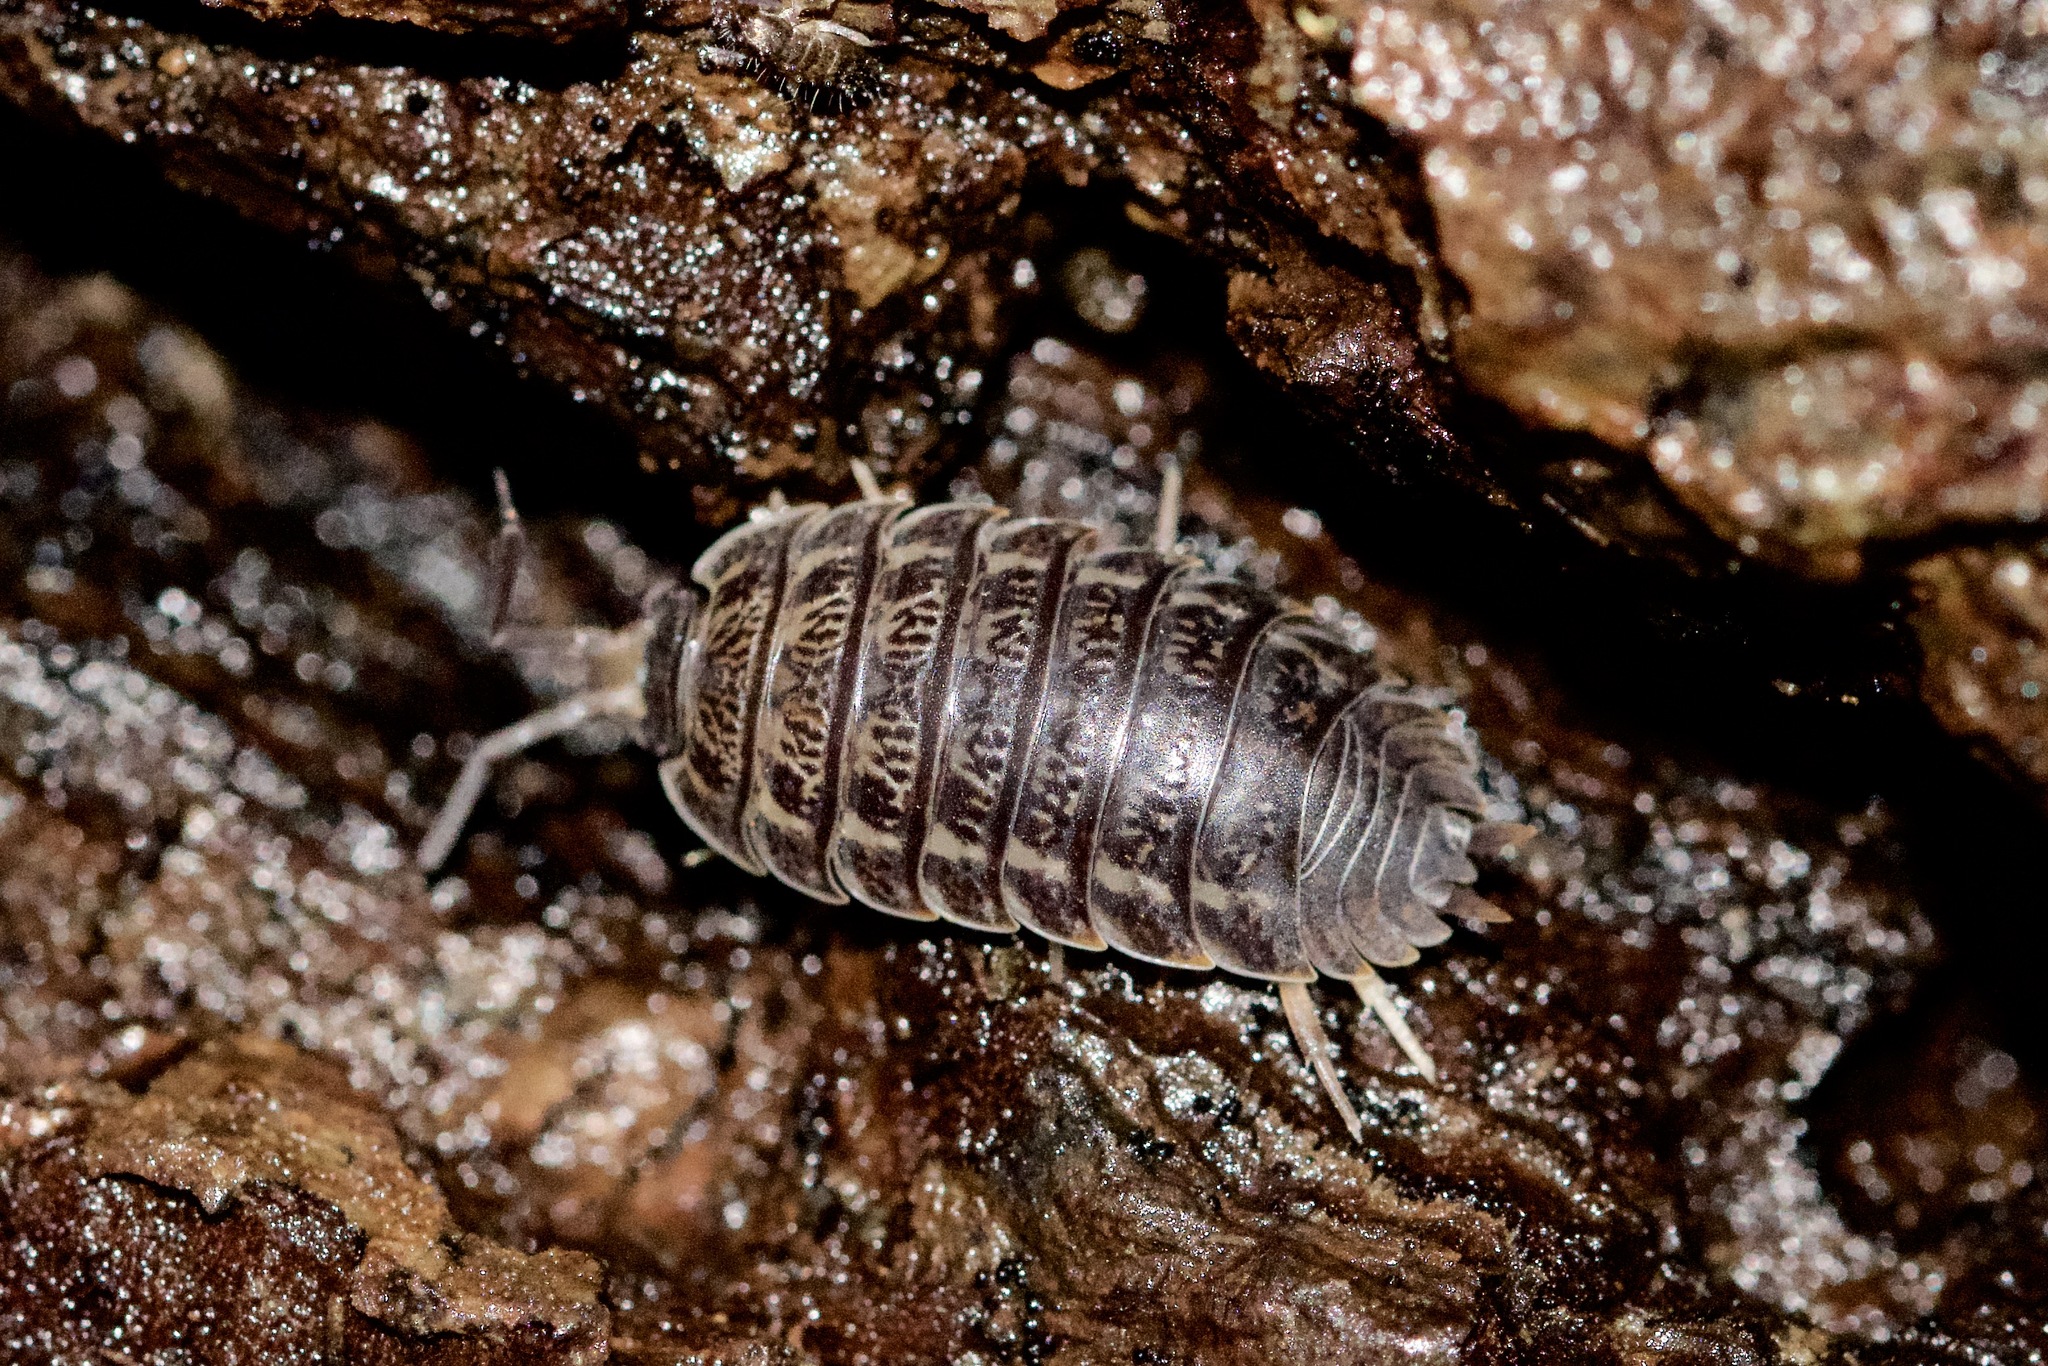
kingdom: Animalia
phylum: Arthropoda
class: Malacostraca
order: Isopoda
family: Trachelipodidae
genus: Trachelipus
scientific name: Trachelipus rathkii
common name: Isopod
